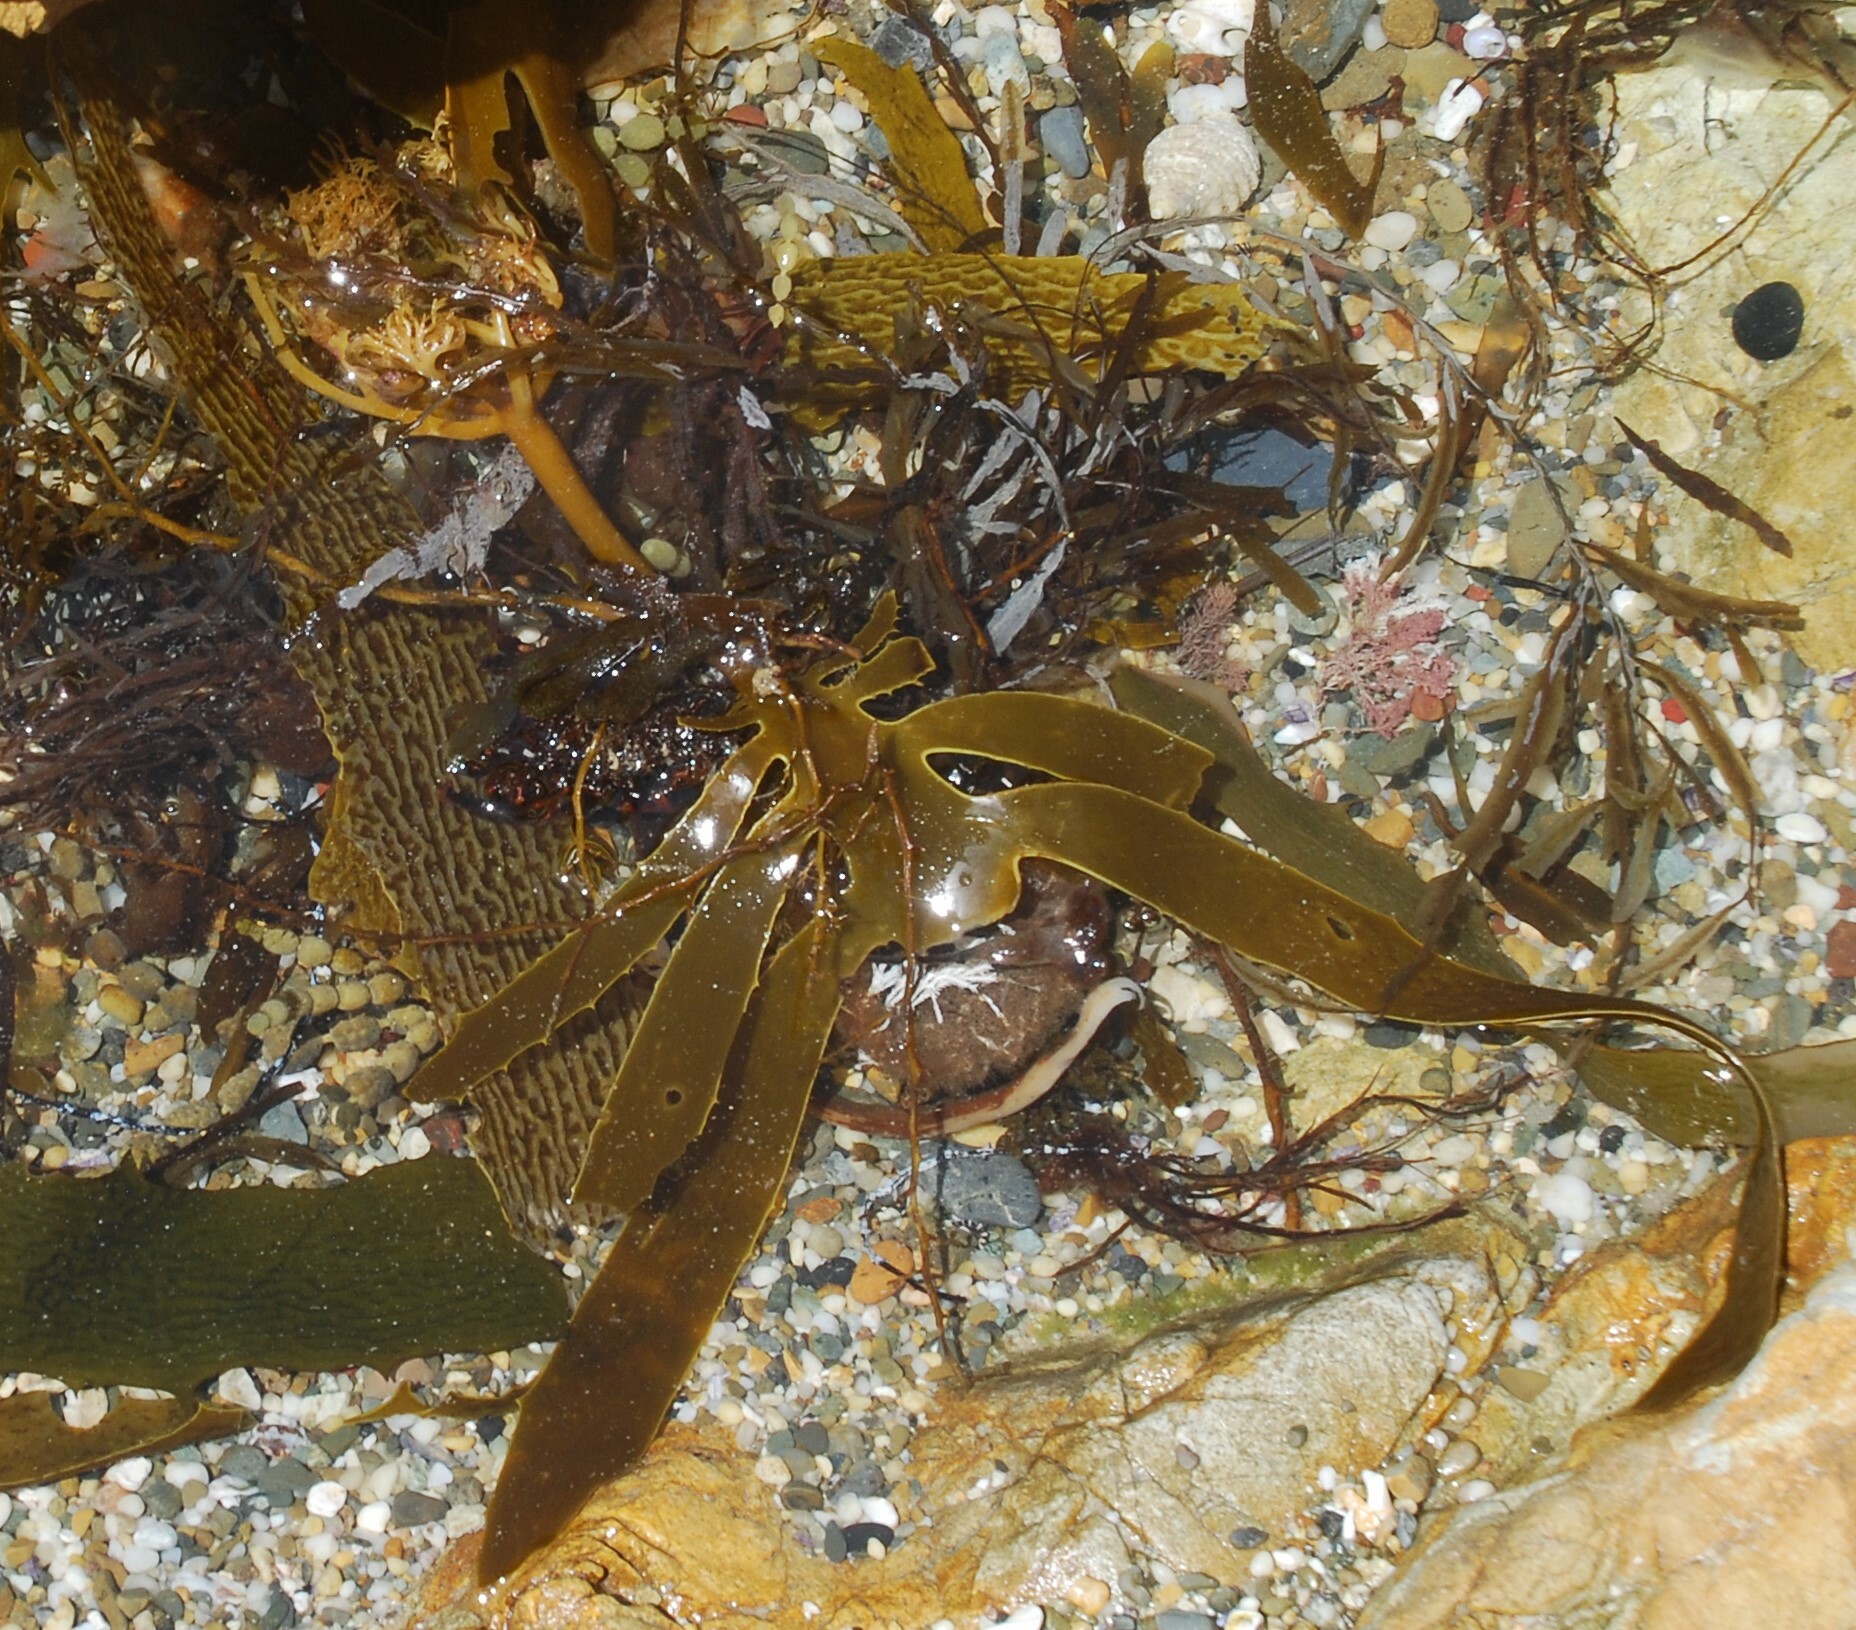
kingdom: Chromista
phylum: Ochrophyta
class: Phaeophyceae
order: Laminariales
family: Lessoniaceae
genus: Ecklonia
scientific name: Ecklonia radiata
